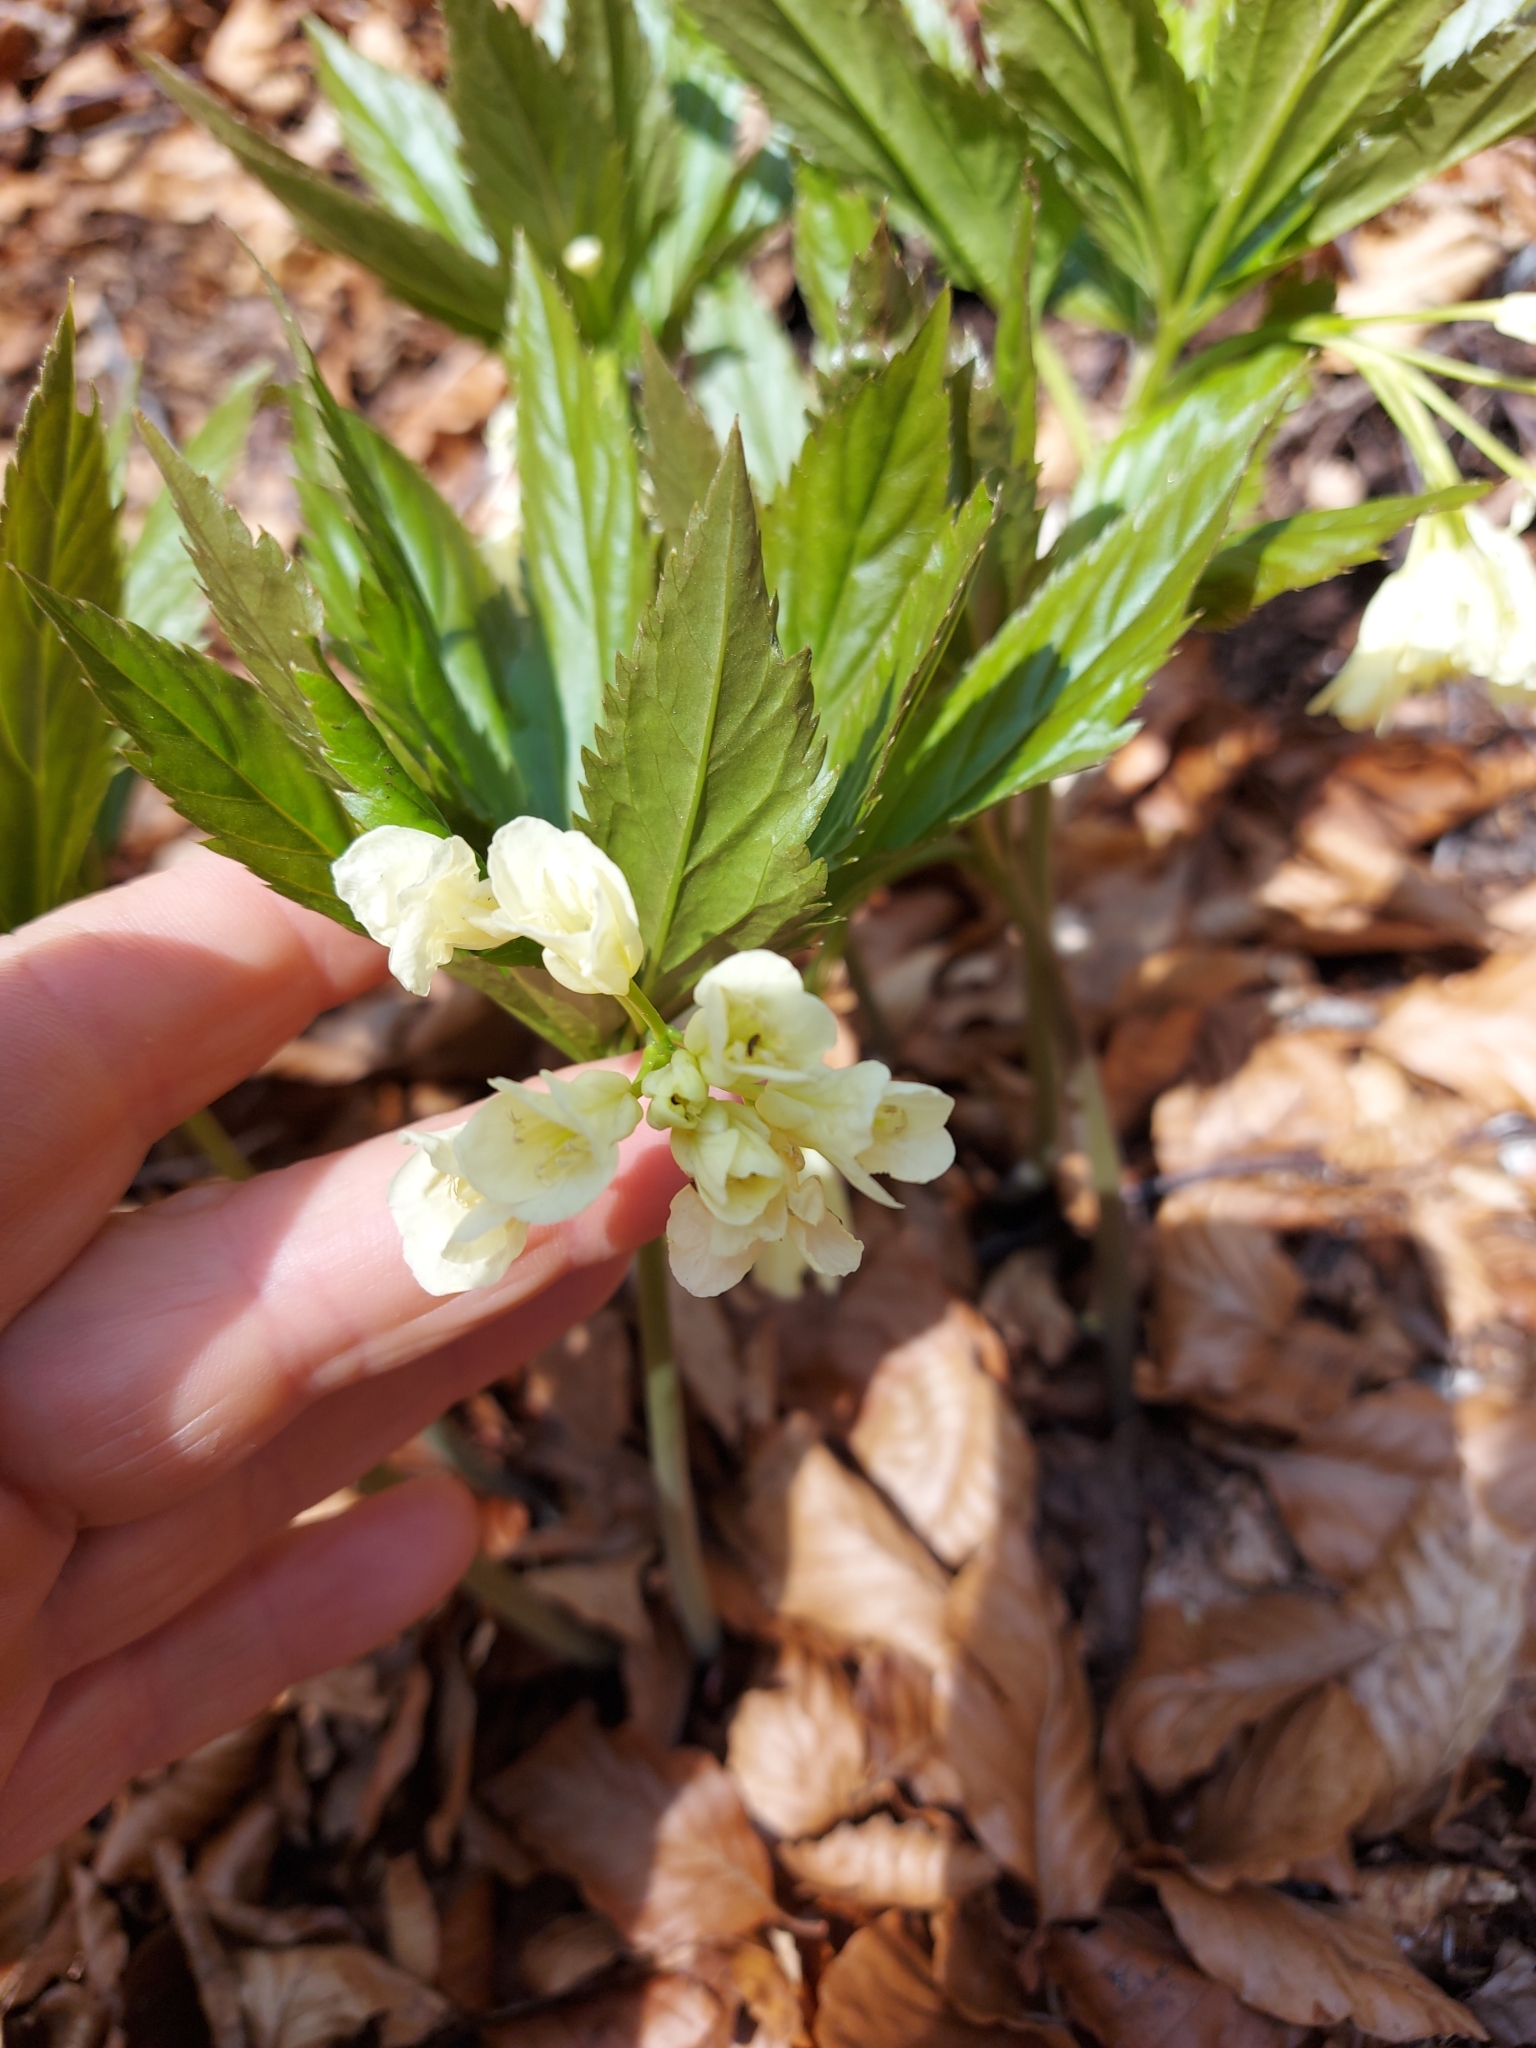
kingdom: Plantae
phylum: Tracheophyta
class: Magnoliopsida
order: Brassicales
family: Brassicaceae
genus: Cardamine
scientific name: Cardamine enneaphyllos
